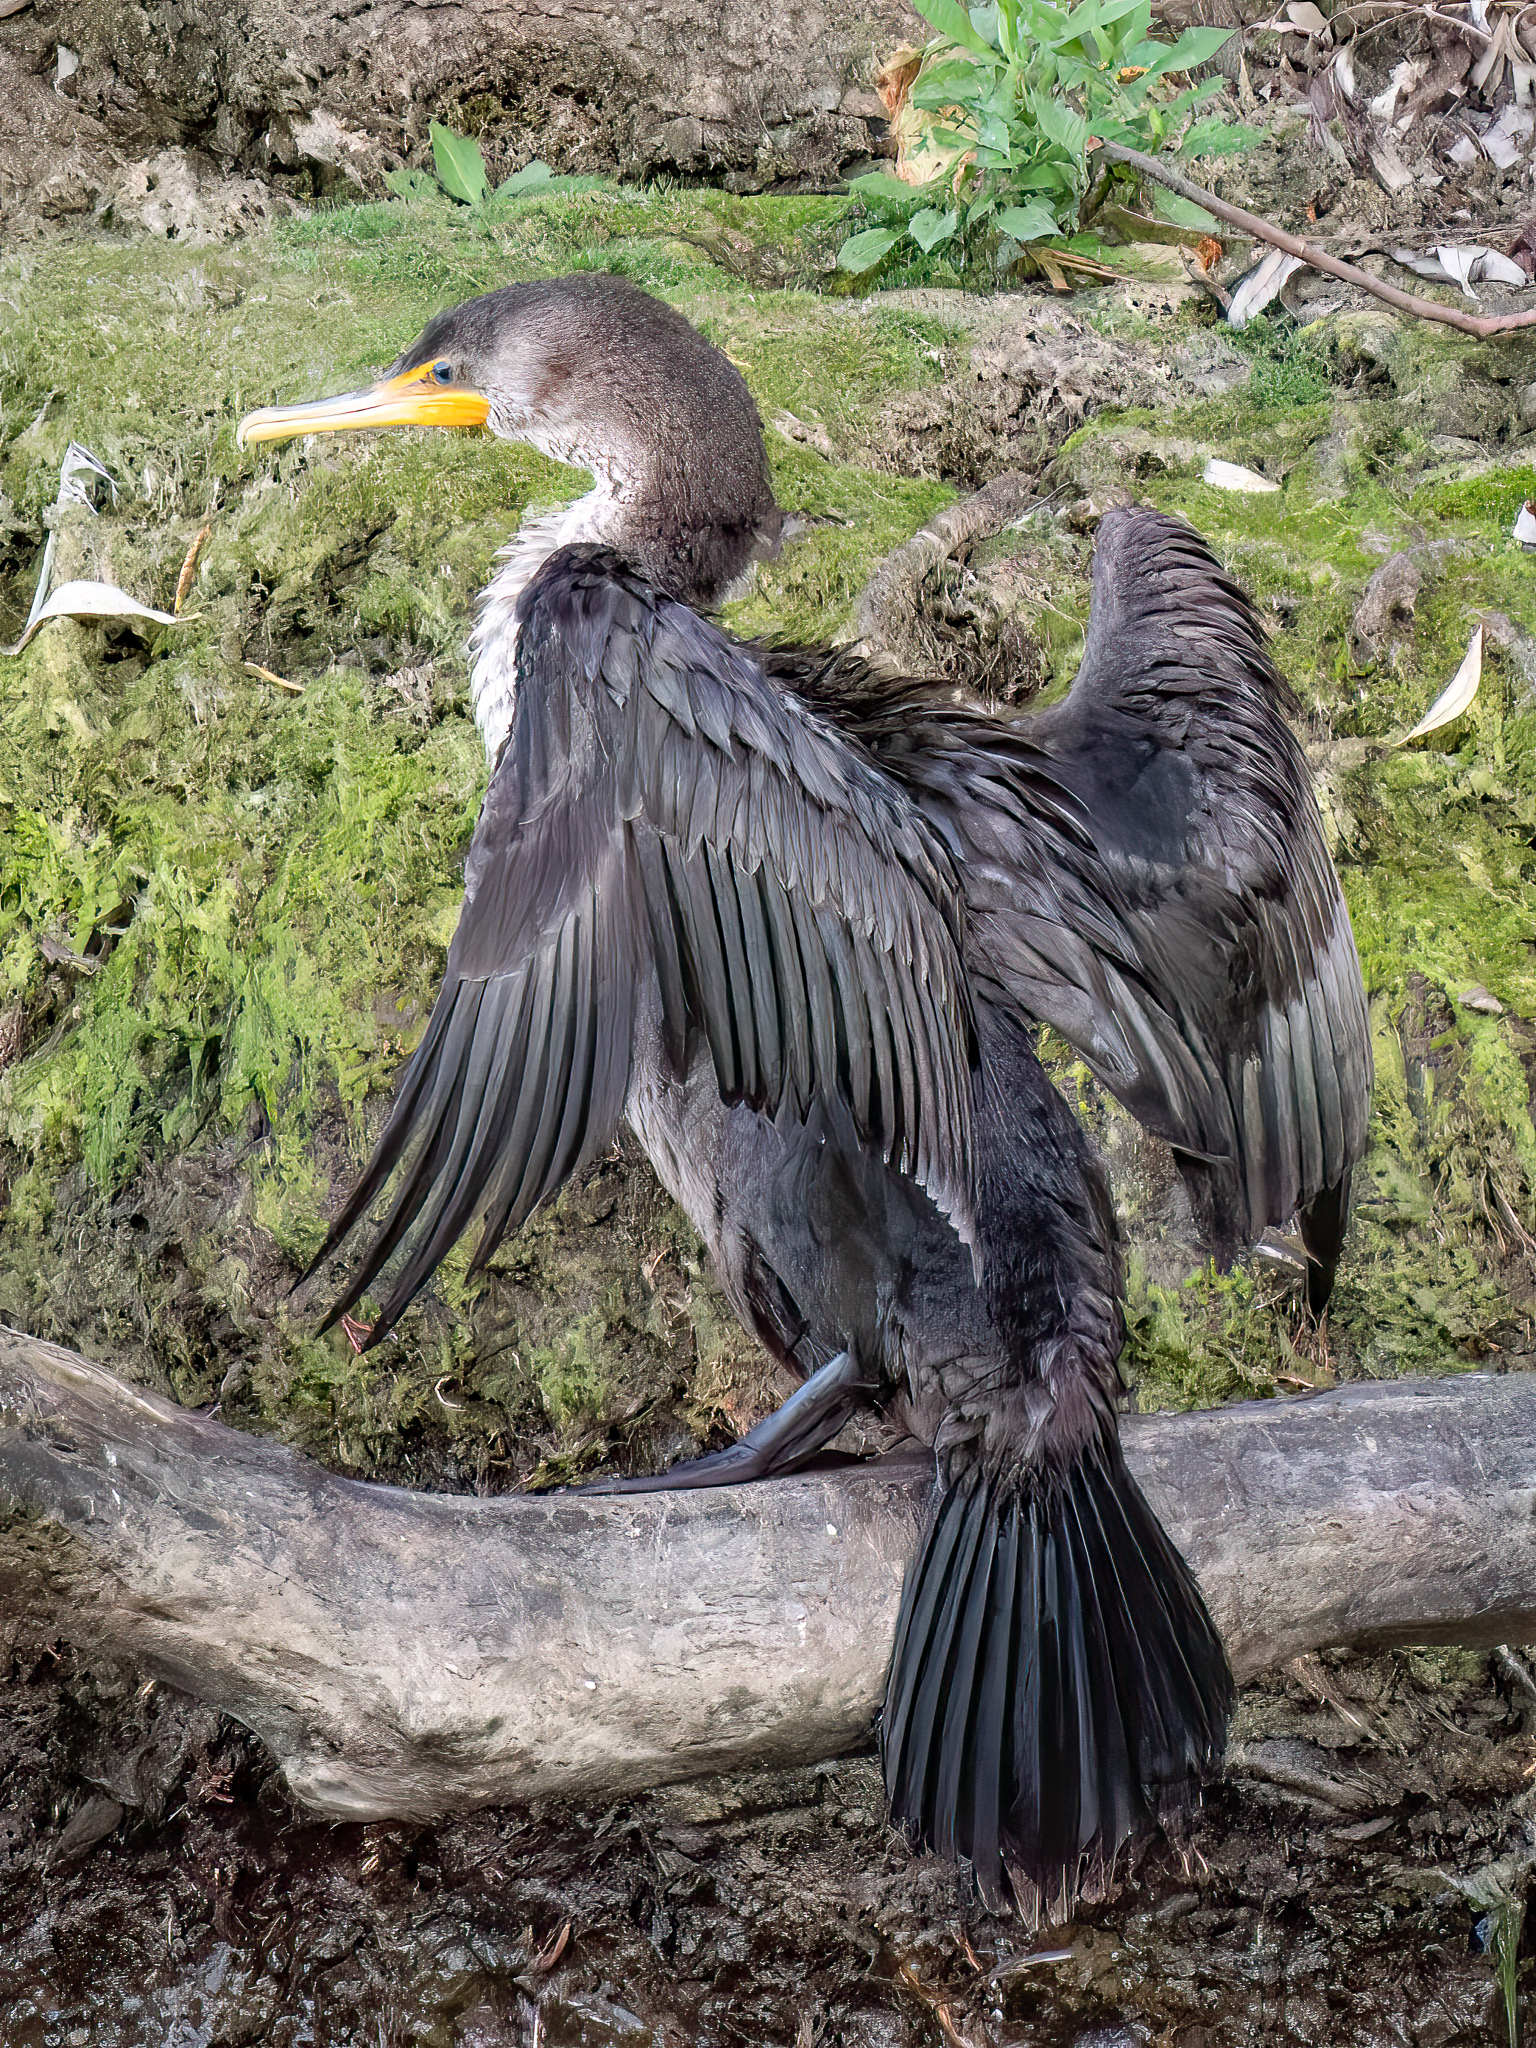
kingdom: Animalia
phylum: Chordata
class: Aves
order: Suliformes
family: Phalacrocoracidae
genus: Phalacrocorax
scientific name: Phalacrocorax auritus
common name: Double-crested cormorant
